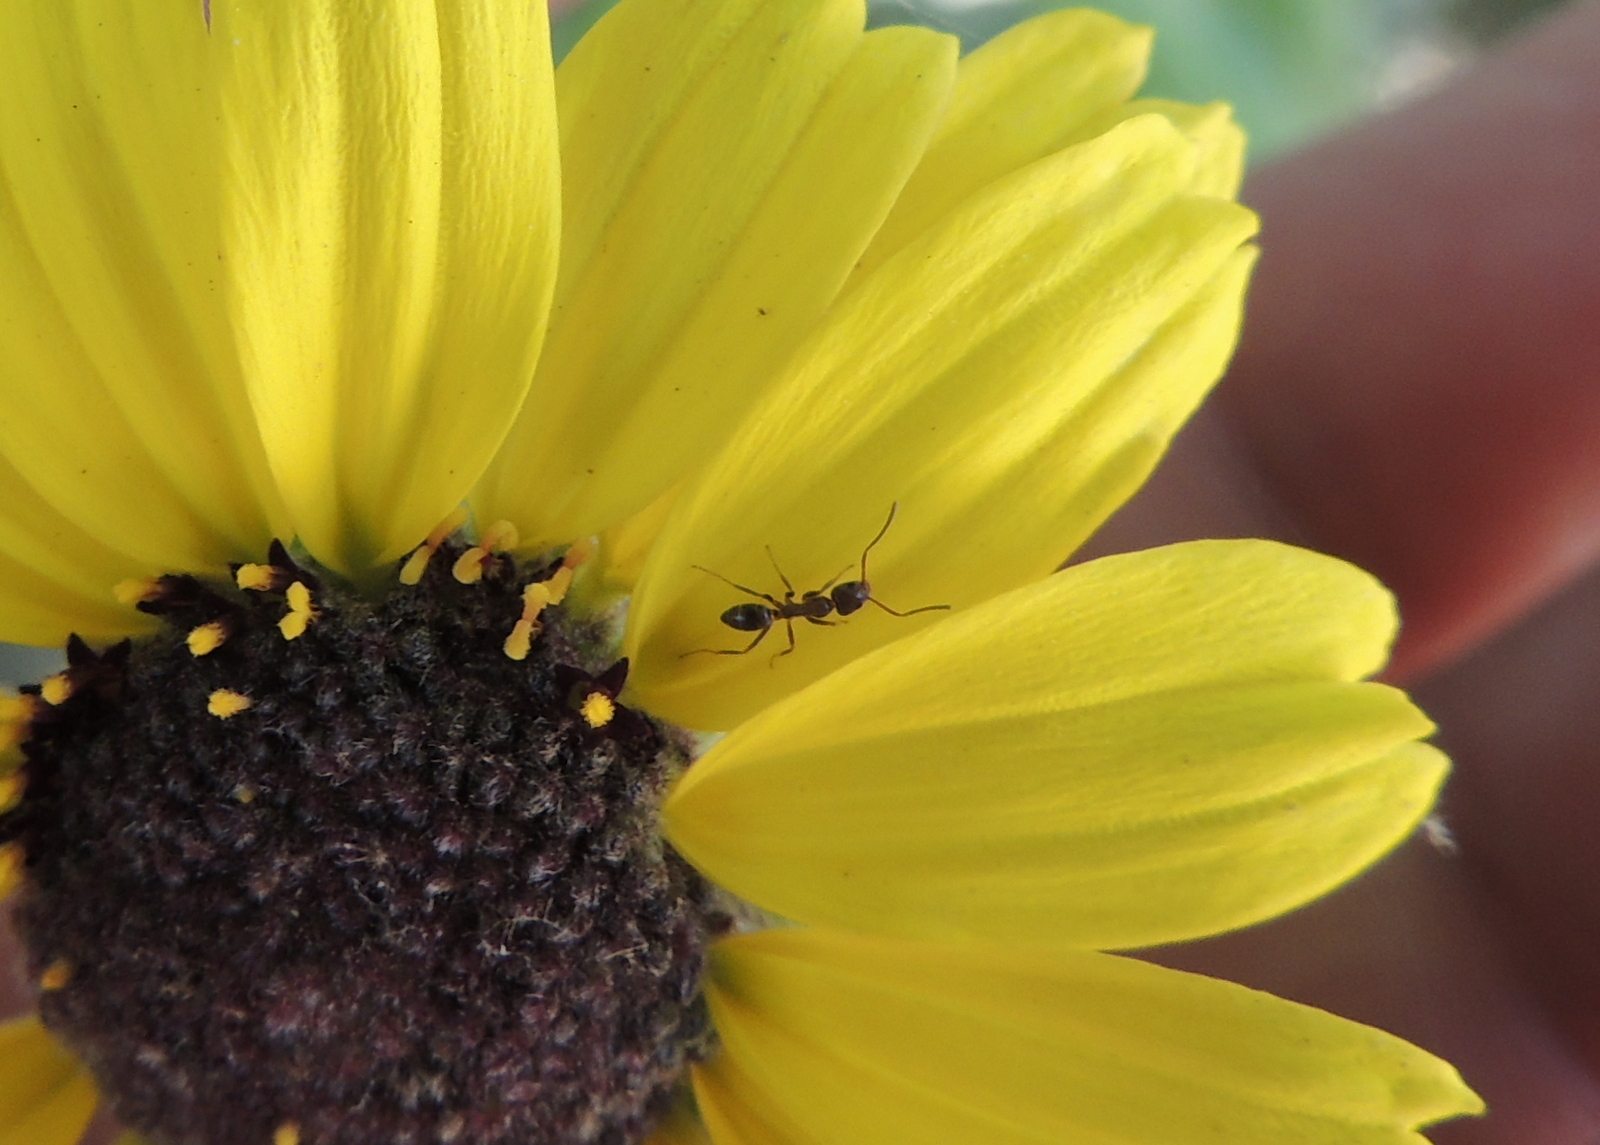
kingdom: Animalia
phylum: Arthropoda
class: Insecta
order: Hymenoptera
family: Formicidae
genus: Linepithema
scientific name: Linepithema humile
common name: Argentine ant
